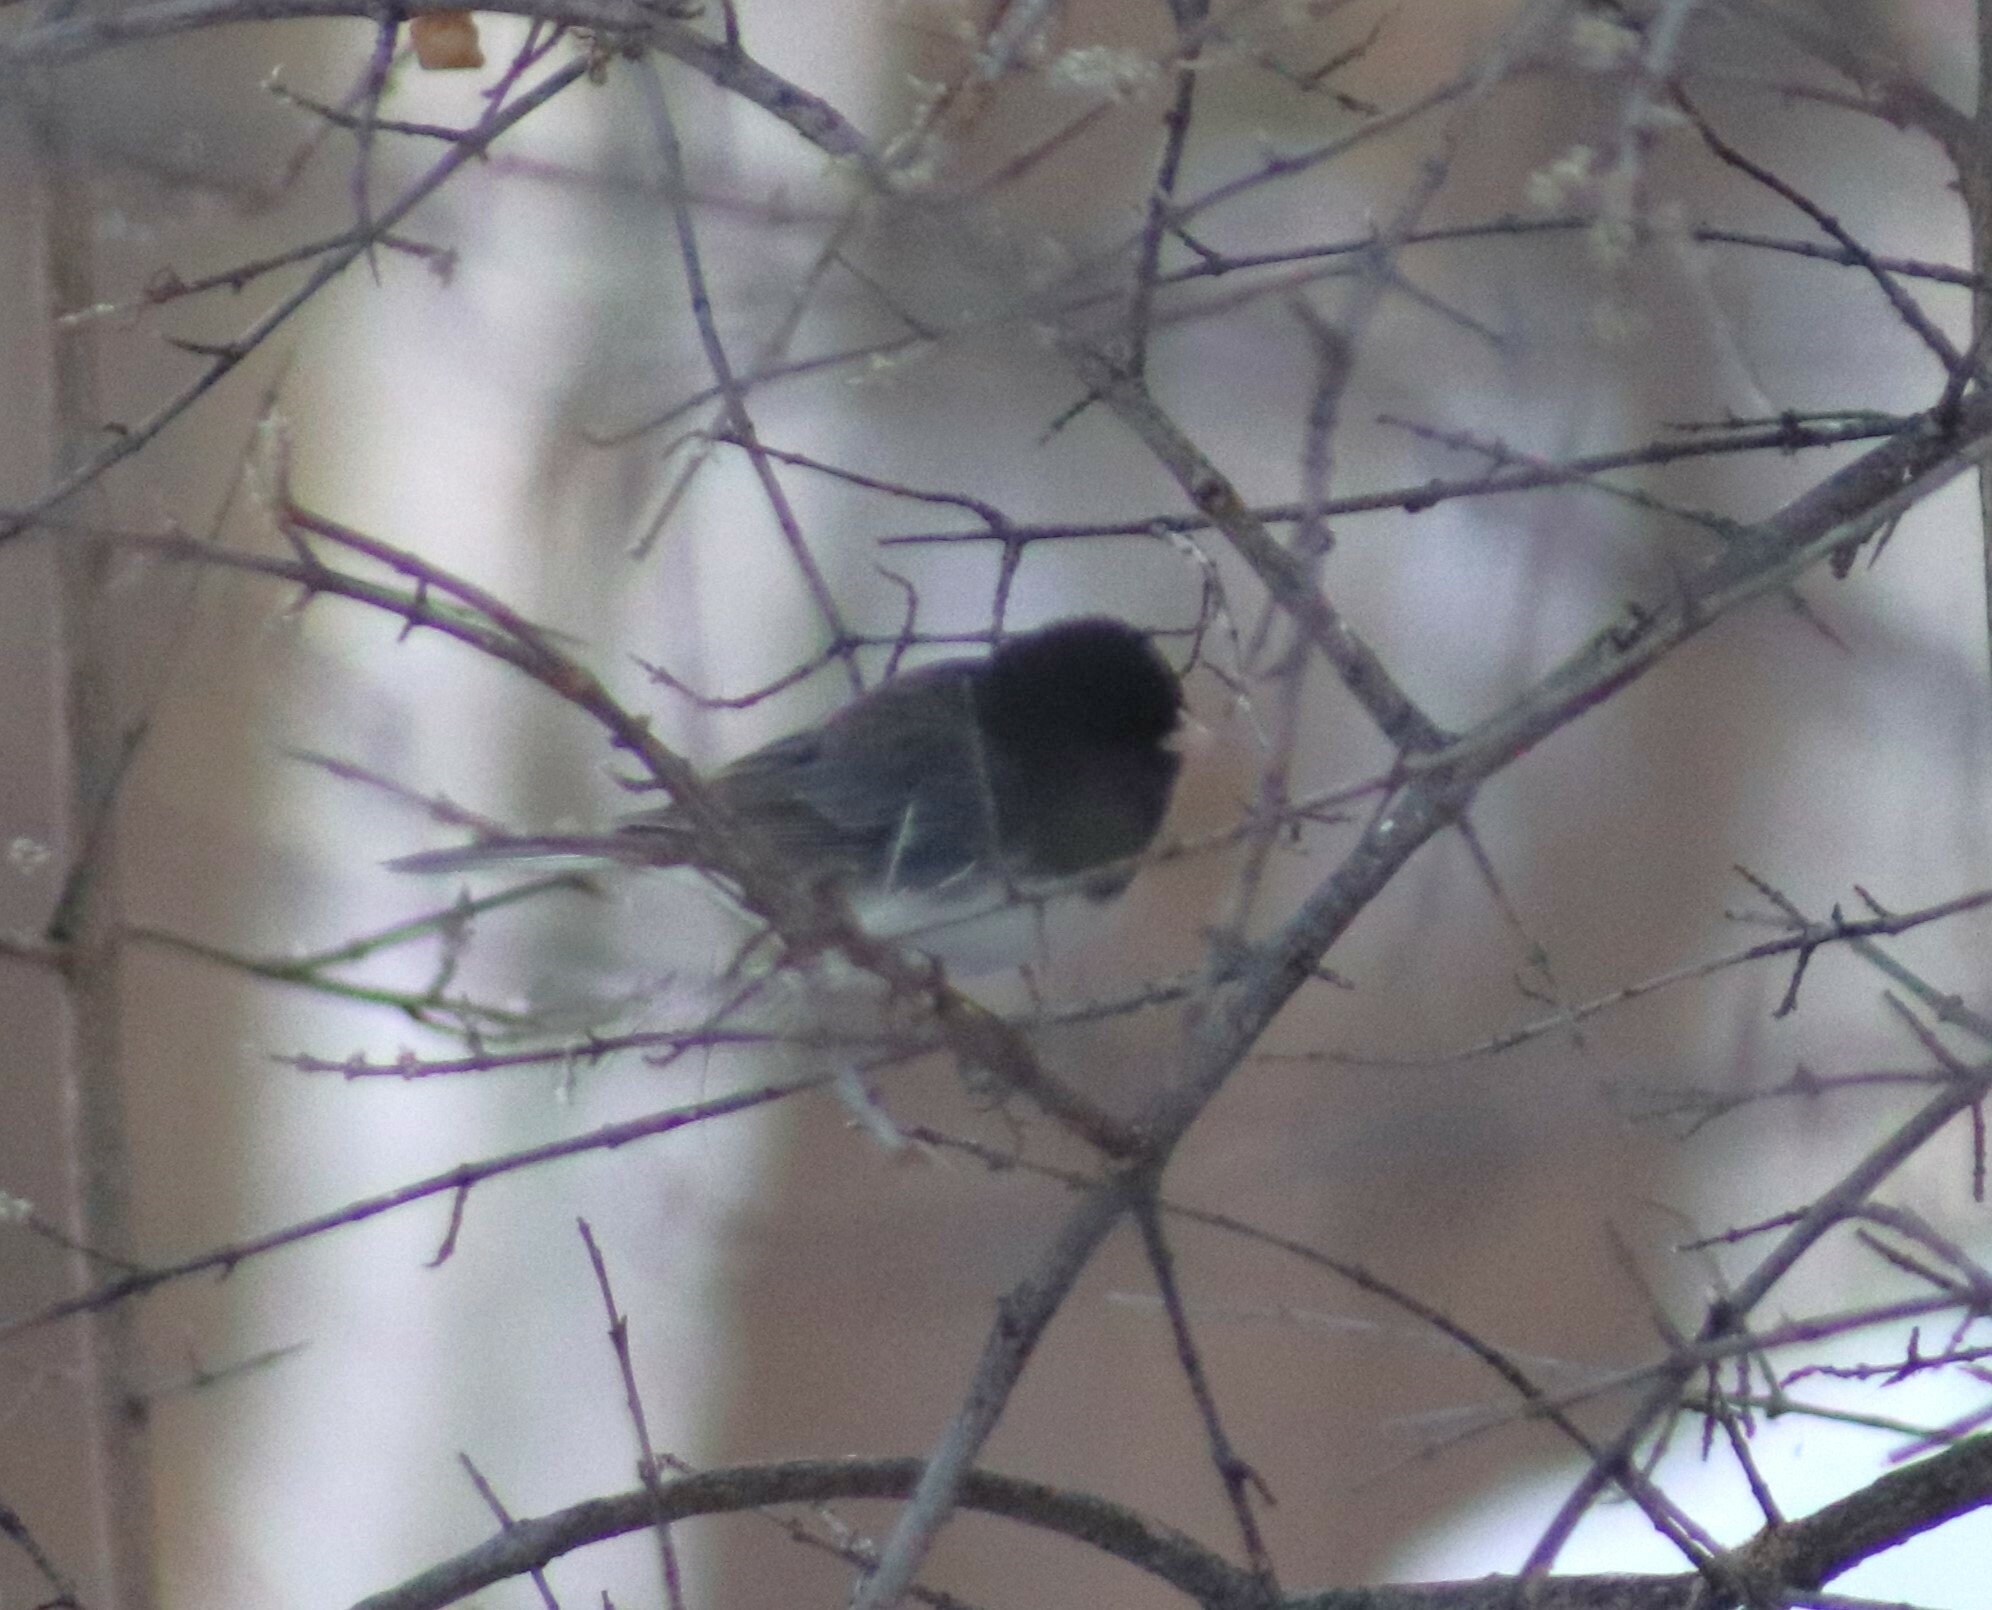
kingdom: Animalia
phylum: Chordata
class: Aves
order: Passeriformes
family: Passerellidae
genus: Junco
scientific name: Junco hyemalis
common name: Dark-eyed junco
